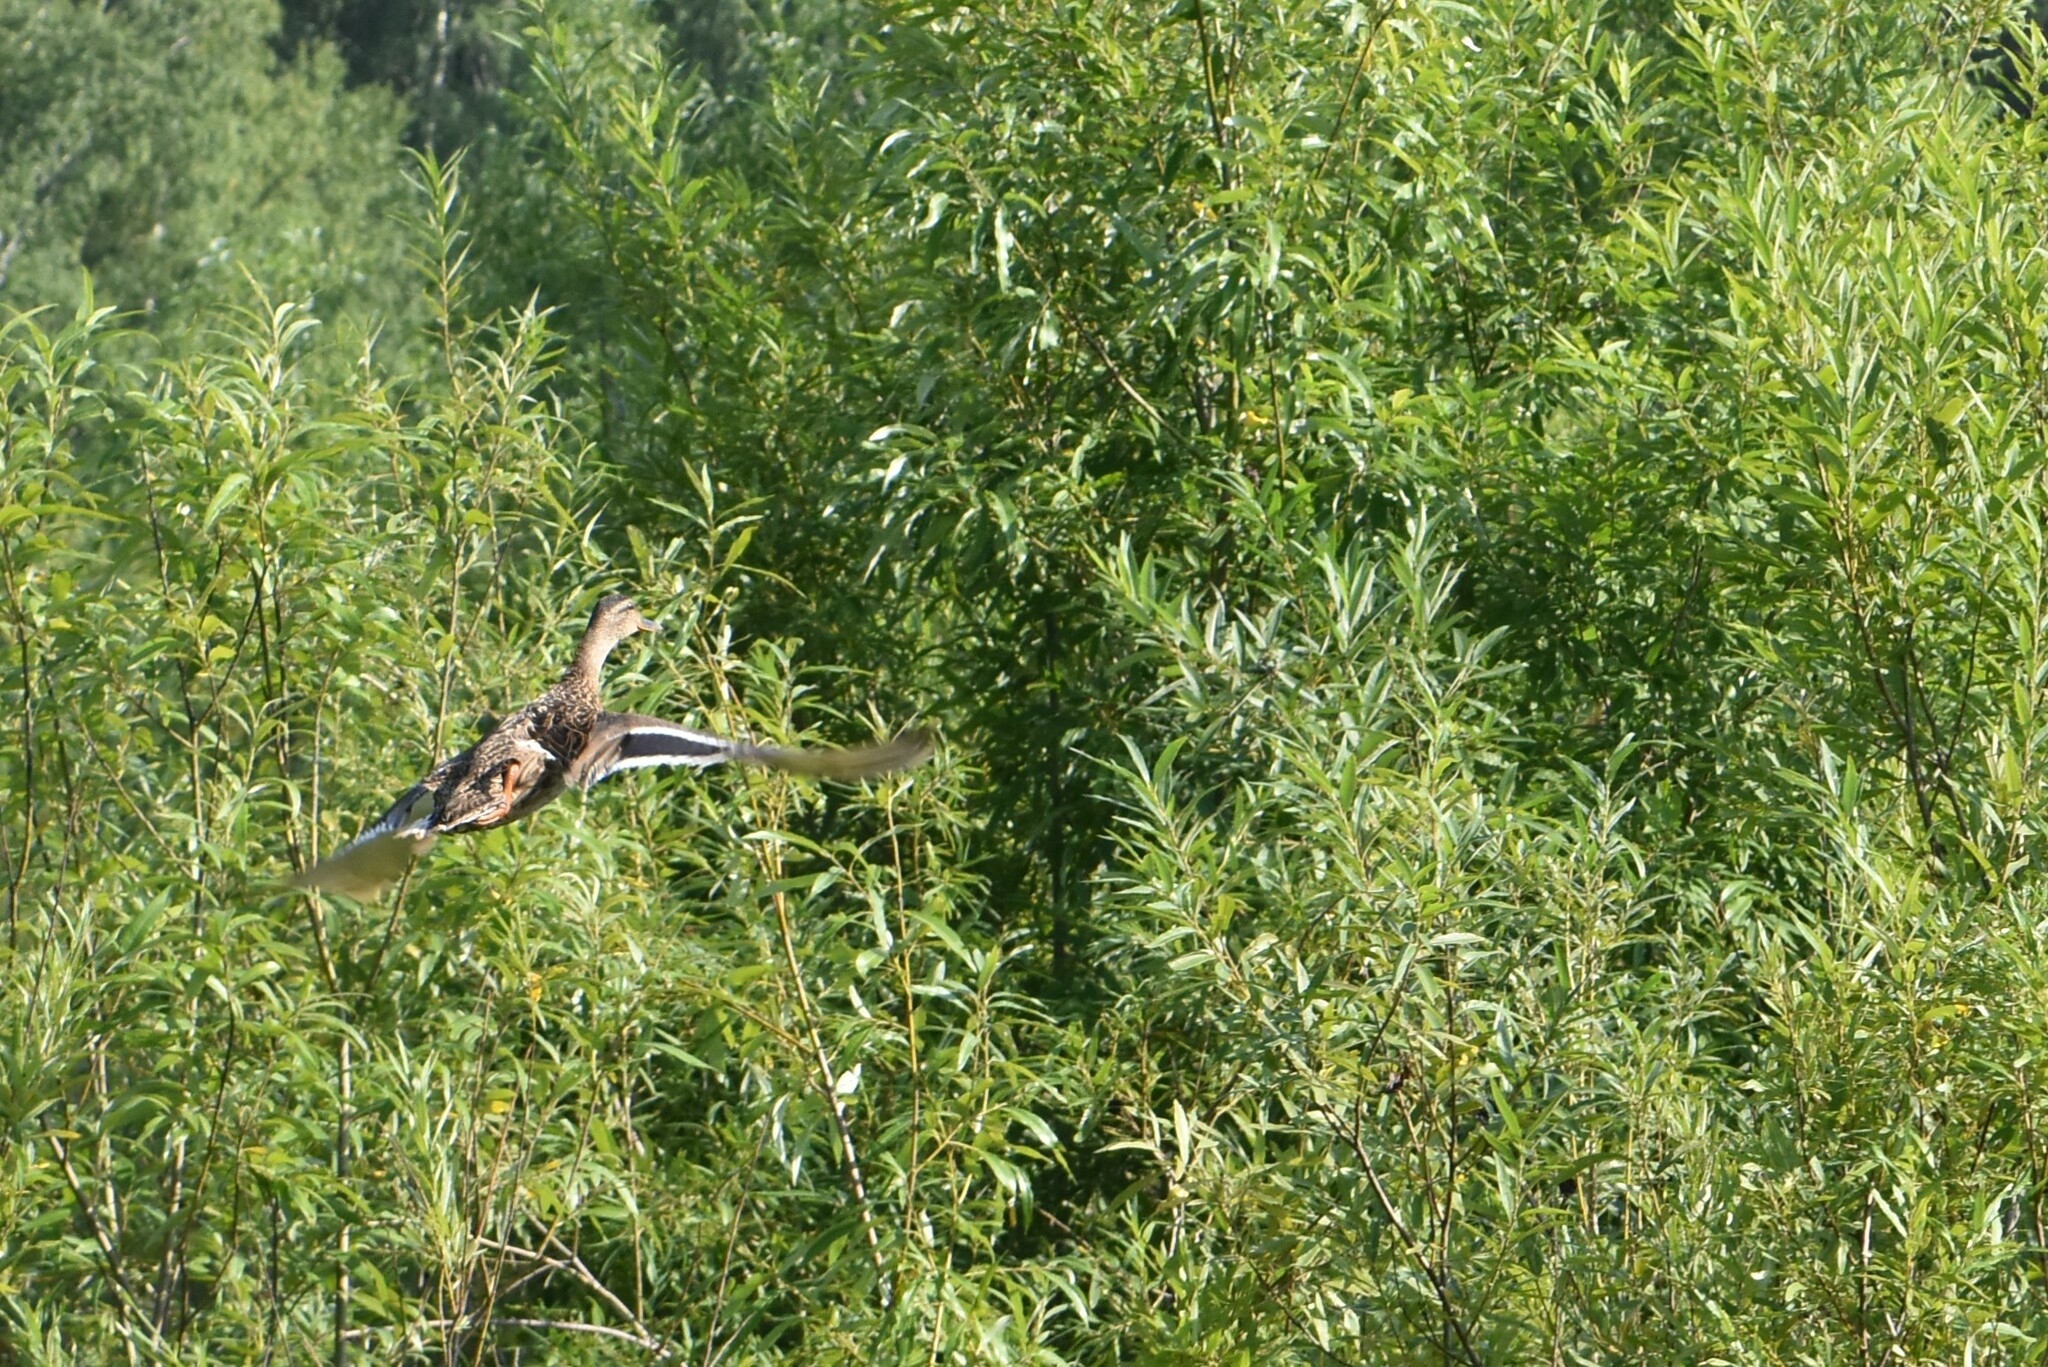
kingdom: Animalia
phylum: Chordata
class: Aves
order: Anseriformes
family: Anatidae
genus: Anas
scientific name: Anas platyrhynchos
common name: Mallard
